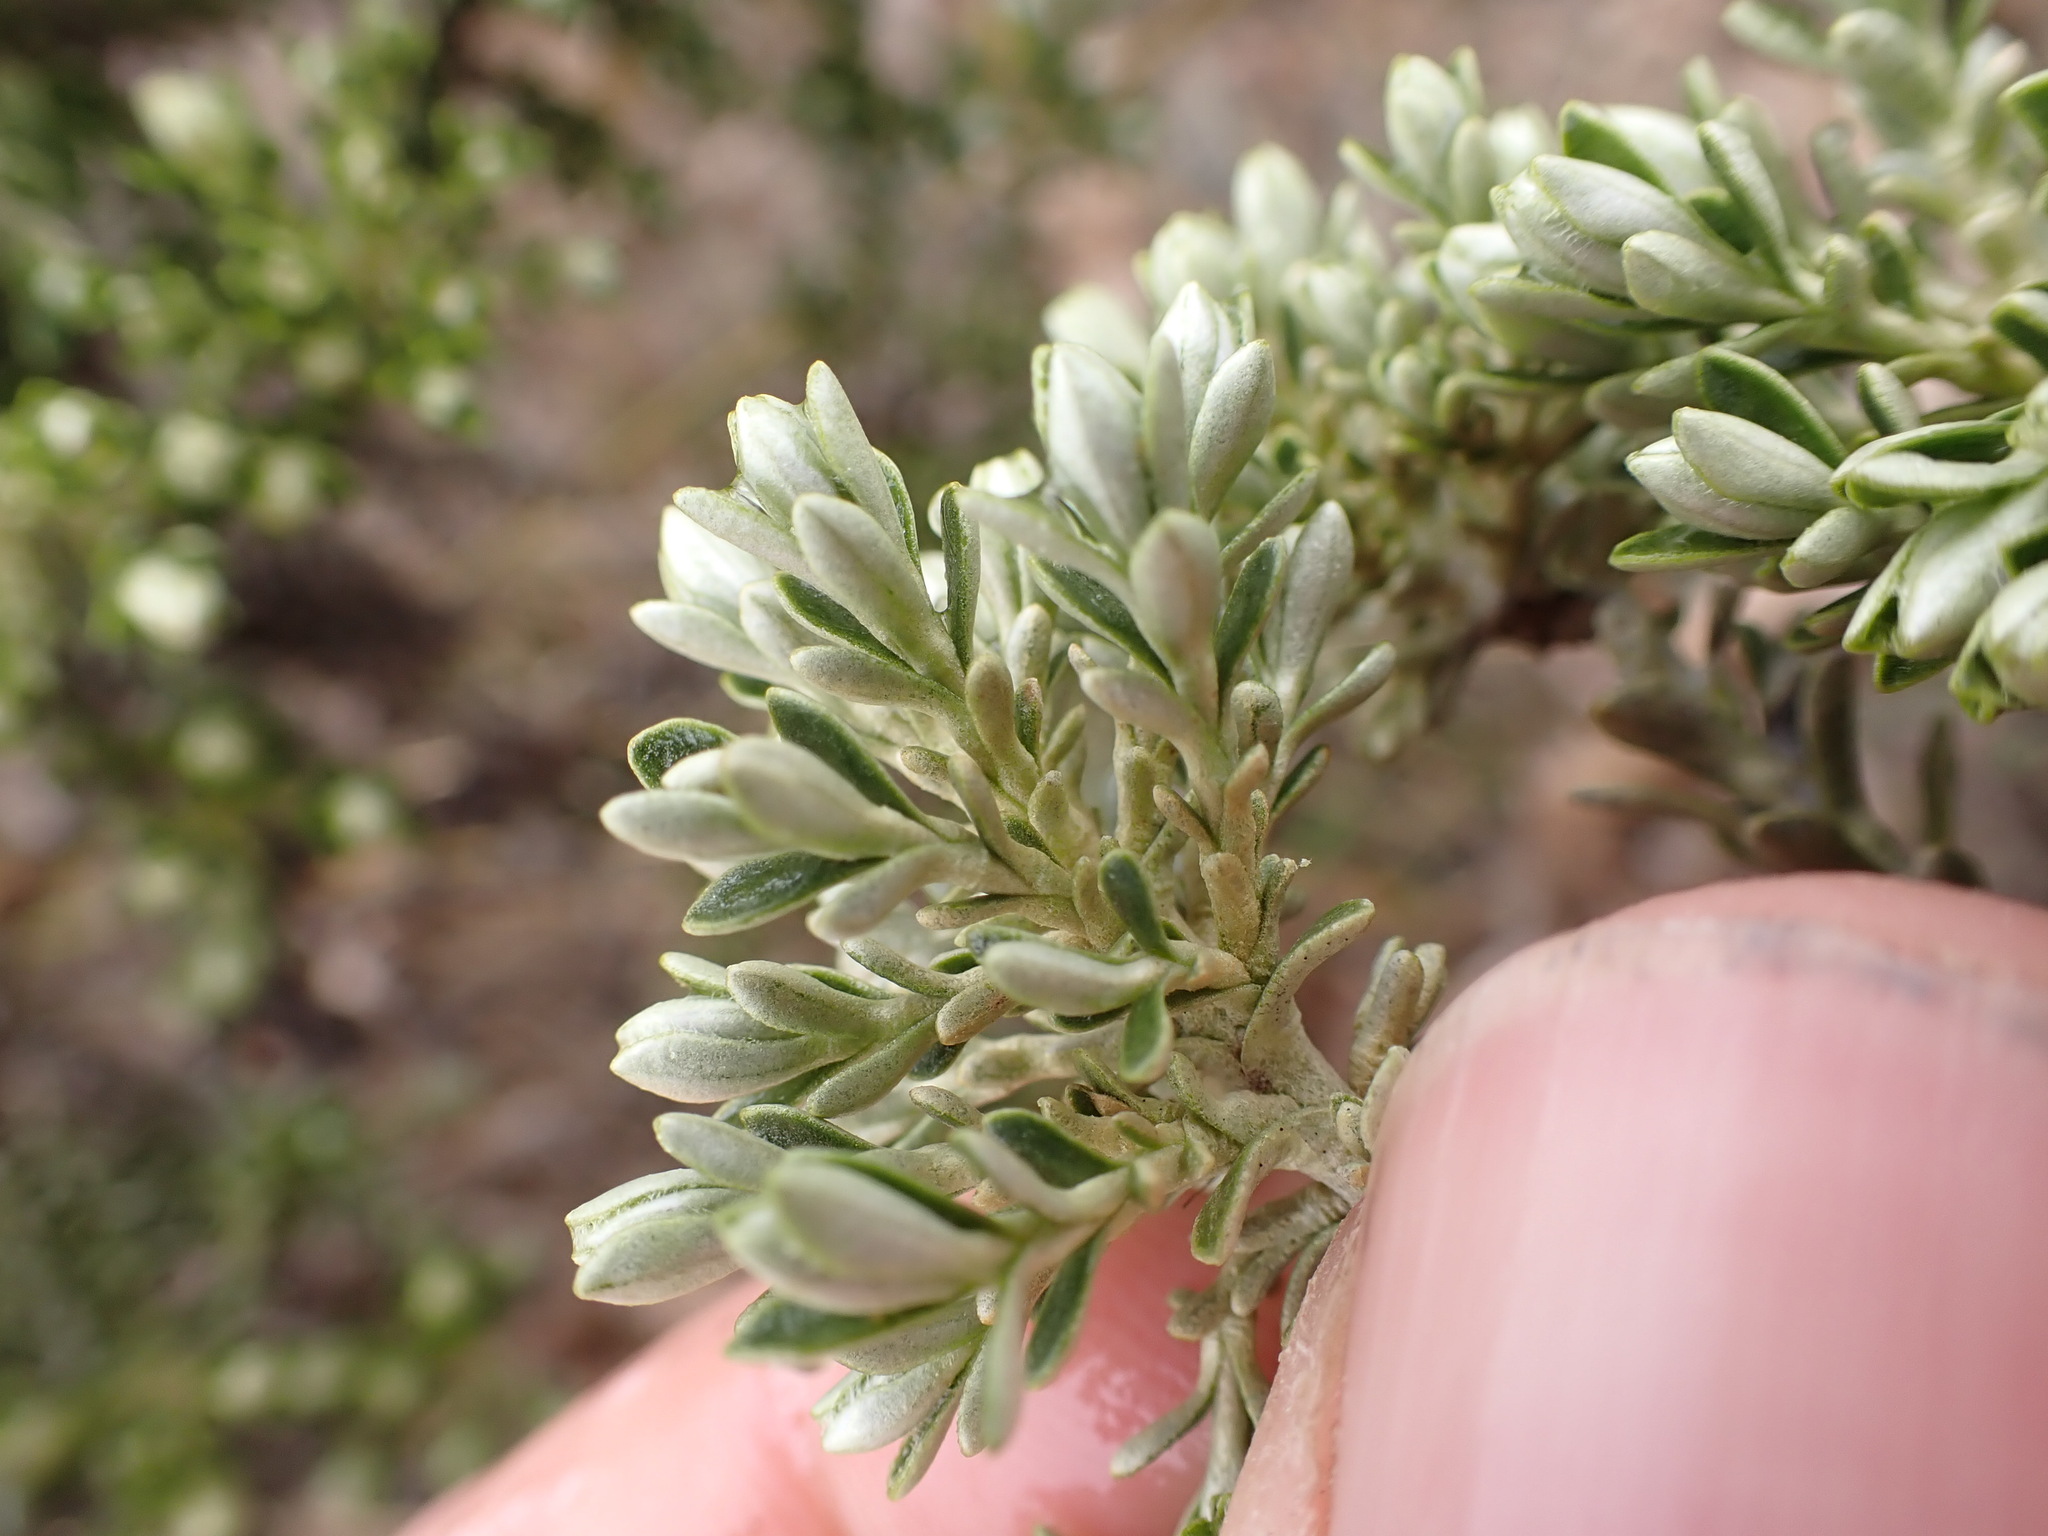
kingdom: Plantae
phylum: Tracheophyta
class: Magnoliopsida
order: Asterales
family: Asteraceae
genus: Brachyglottis
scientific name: Brachyglottis cassinioides
